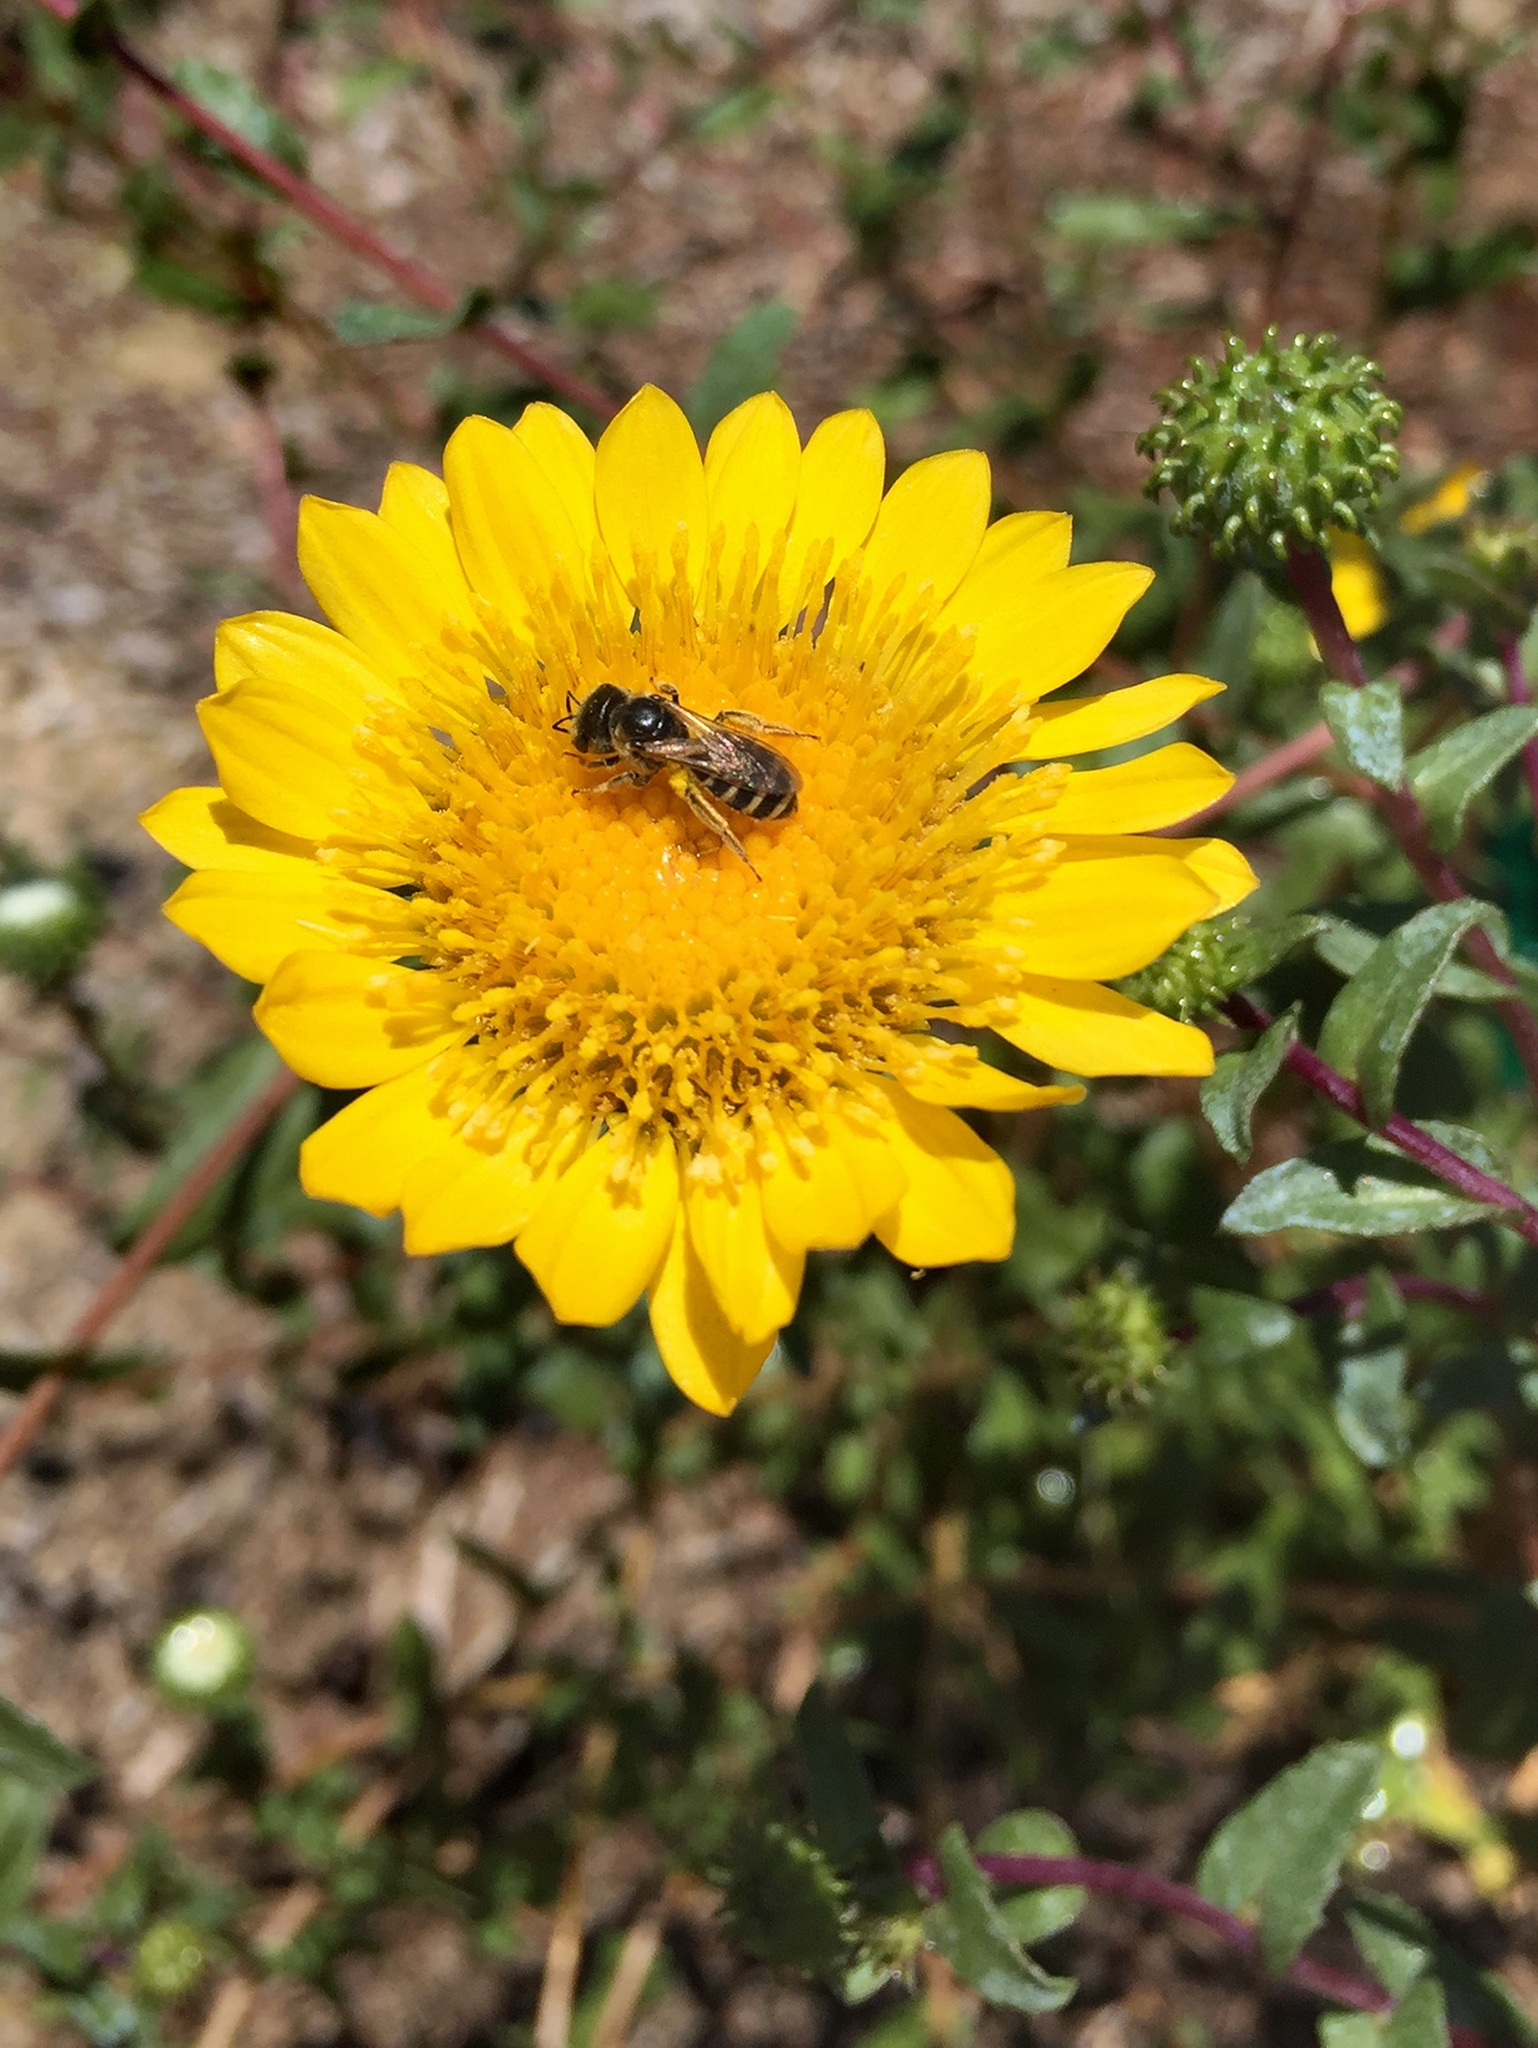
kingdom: Animalia
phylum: Arthropoda
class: Insecta
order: Hymenoptera
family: Halictidae
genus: Halictus
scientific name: Halictus ligatus
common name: Ligated furrow bee
